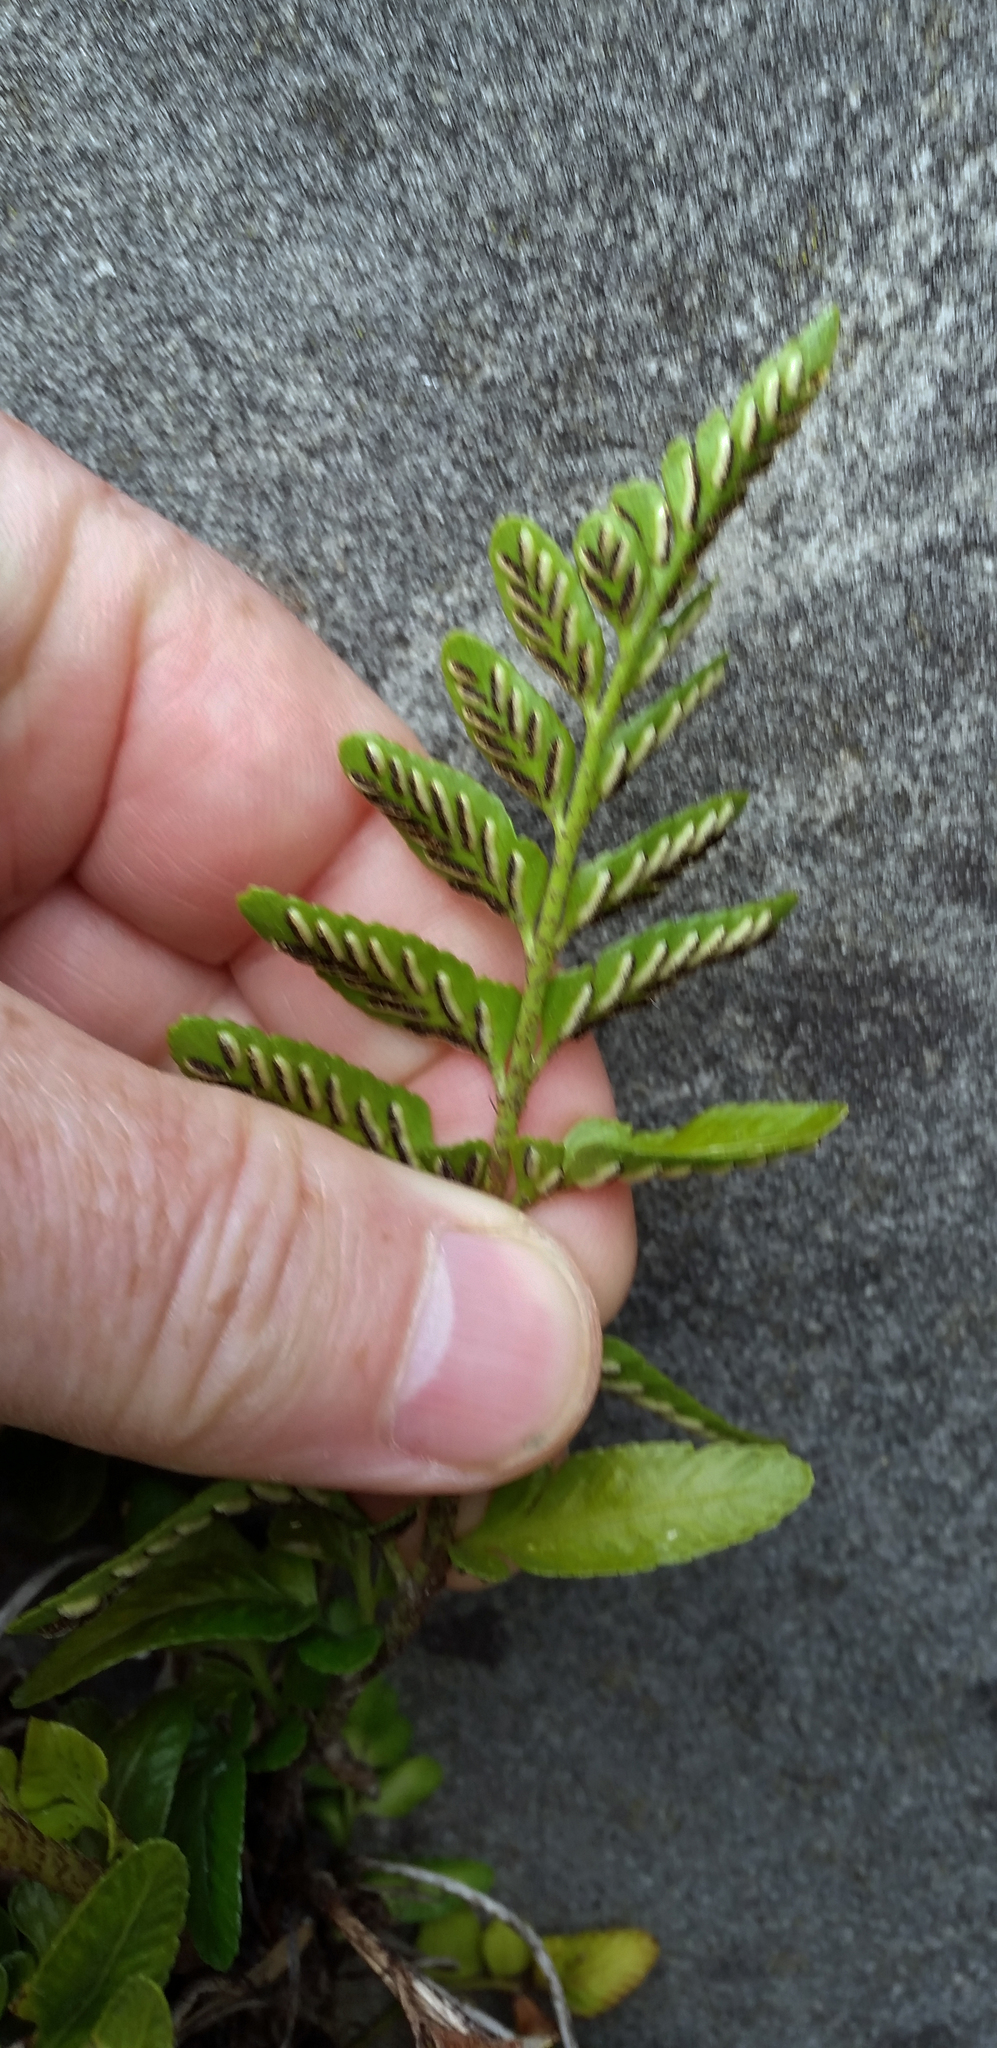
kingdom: Plantae
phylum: Tracheophyta
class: Polypodiopsida
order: Polypodiales
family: Aspleniaceae
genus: Asplenium
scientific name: Asplenium lyallii
